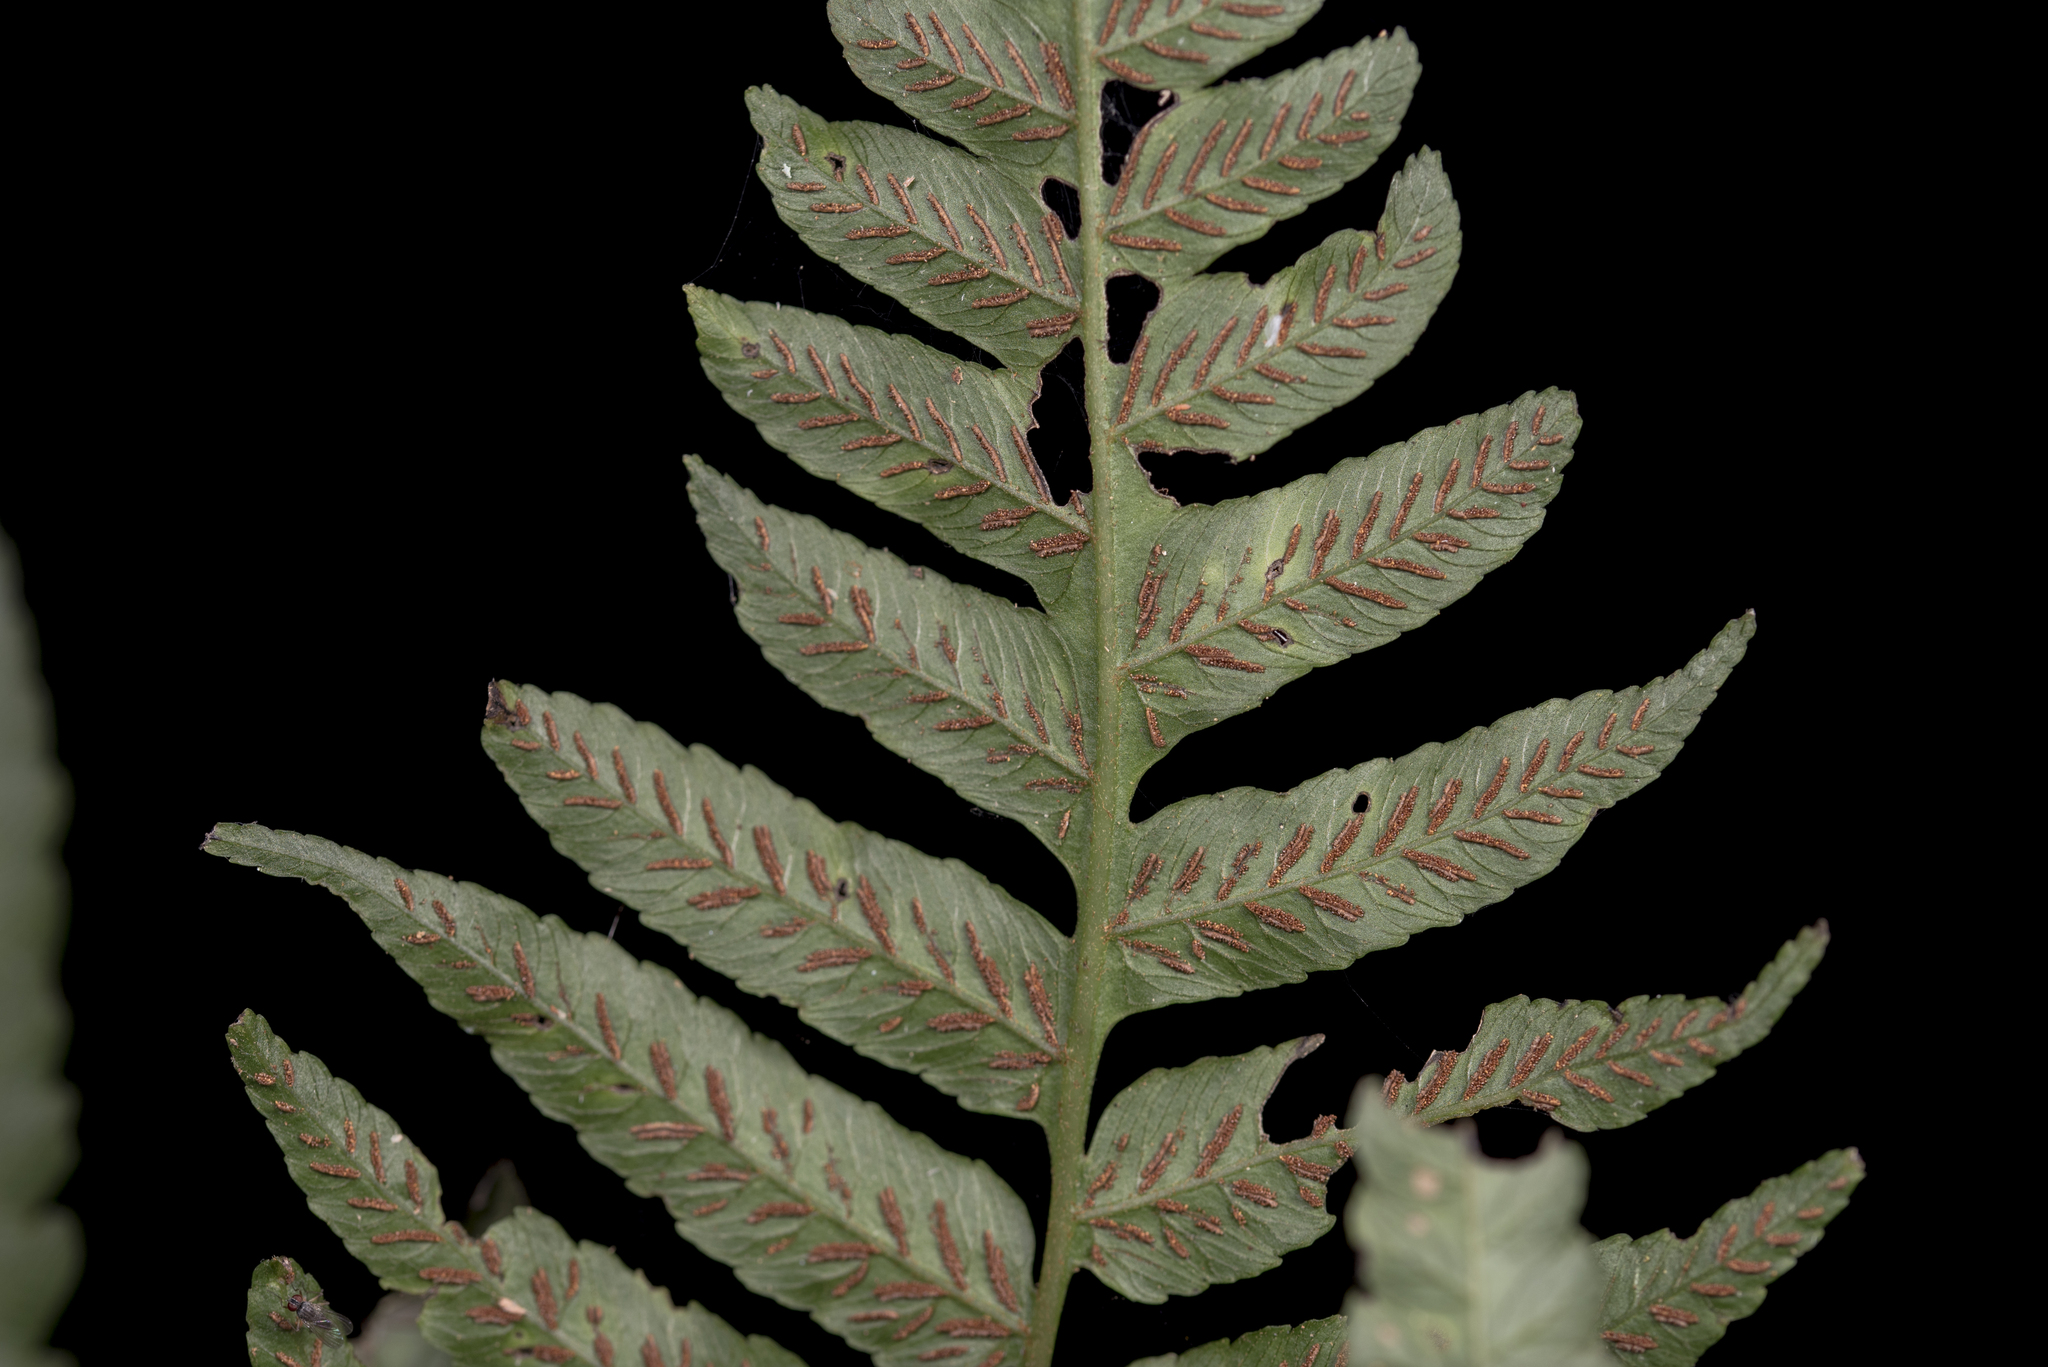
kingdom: Plantae
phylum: Tracheophyta
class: Polypodiopsida
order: Polypodiales
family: Athyriaceae
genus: Diplazium
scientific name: Diplazium dilatatum
